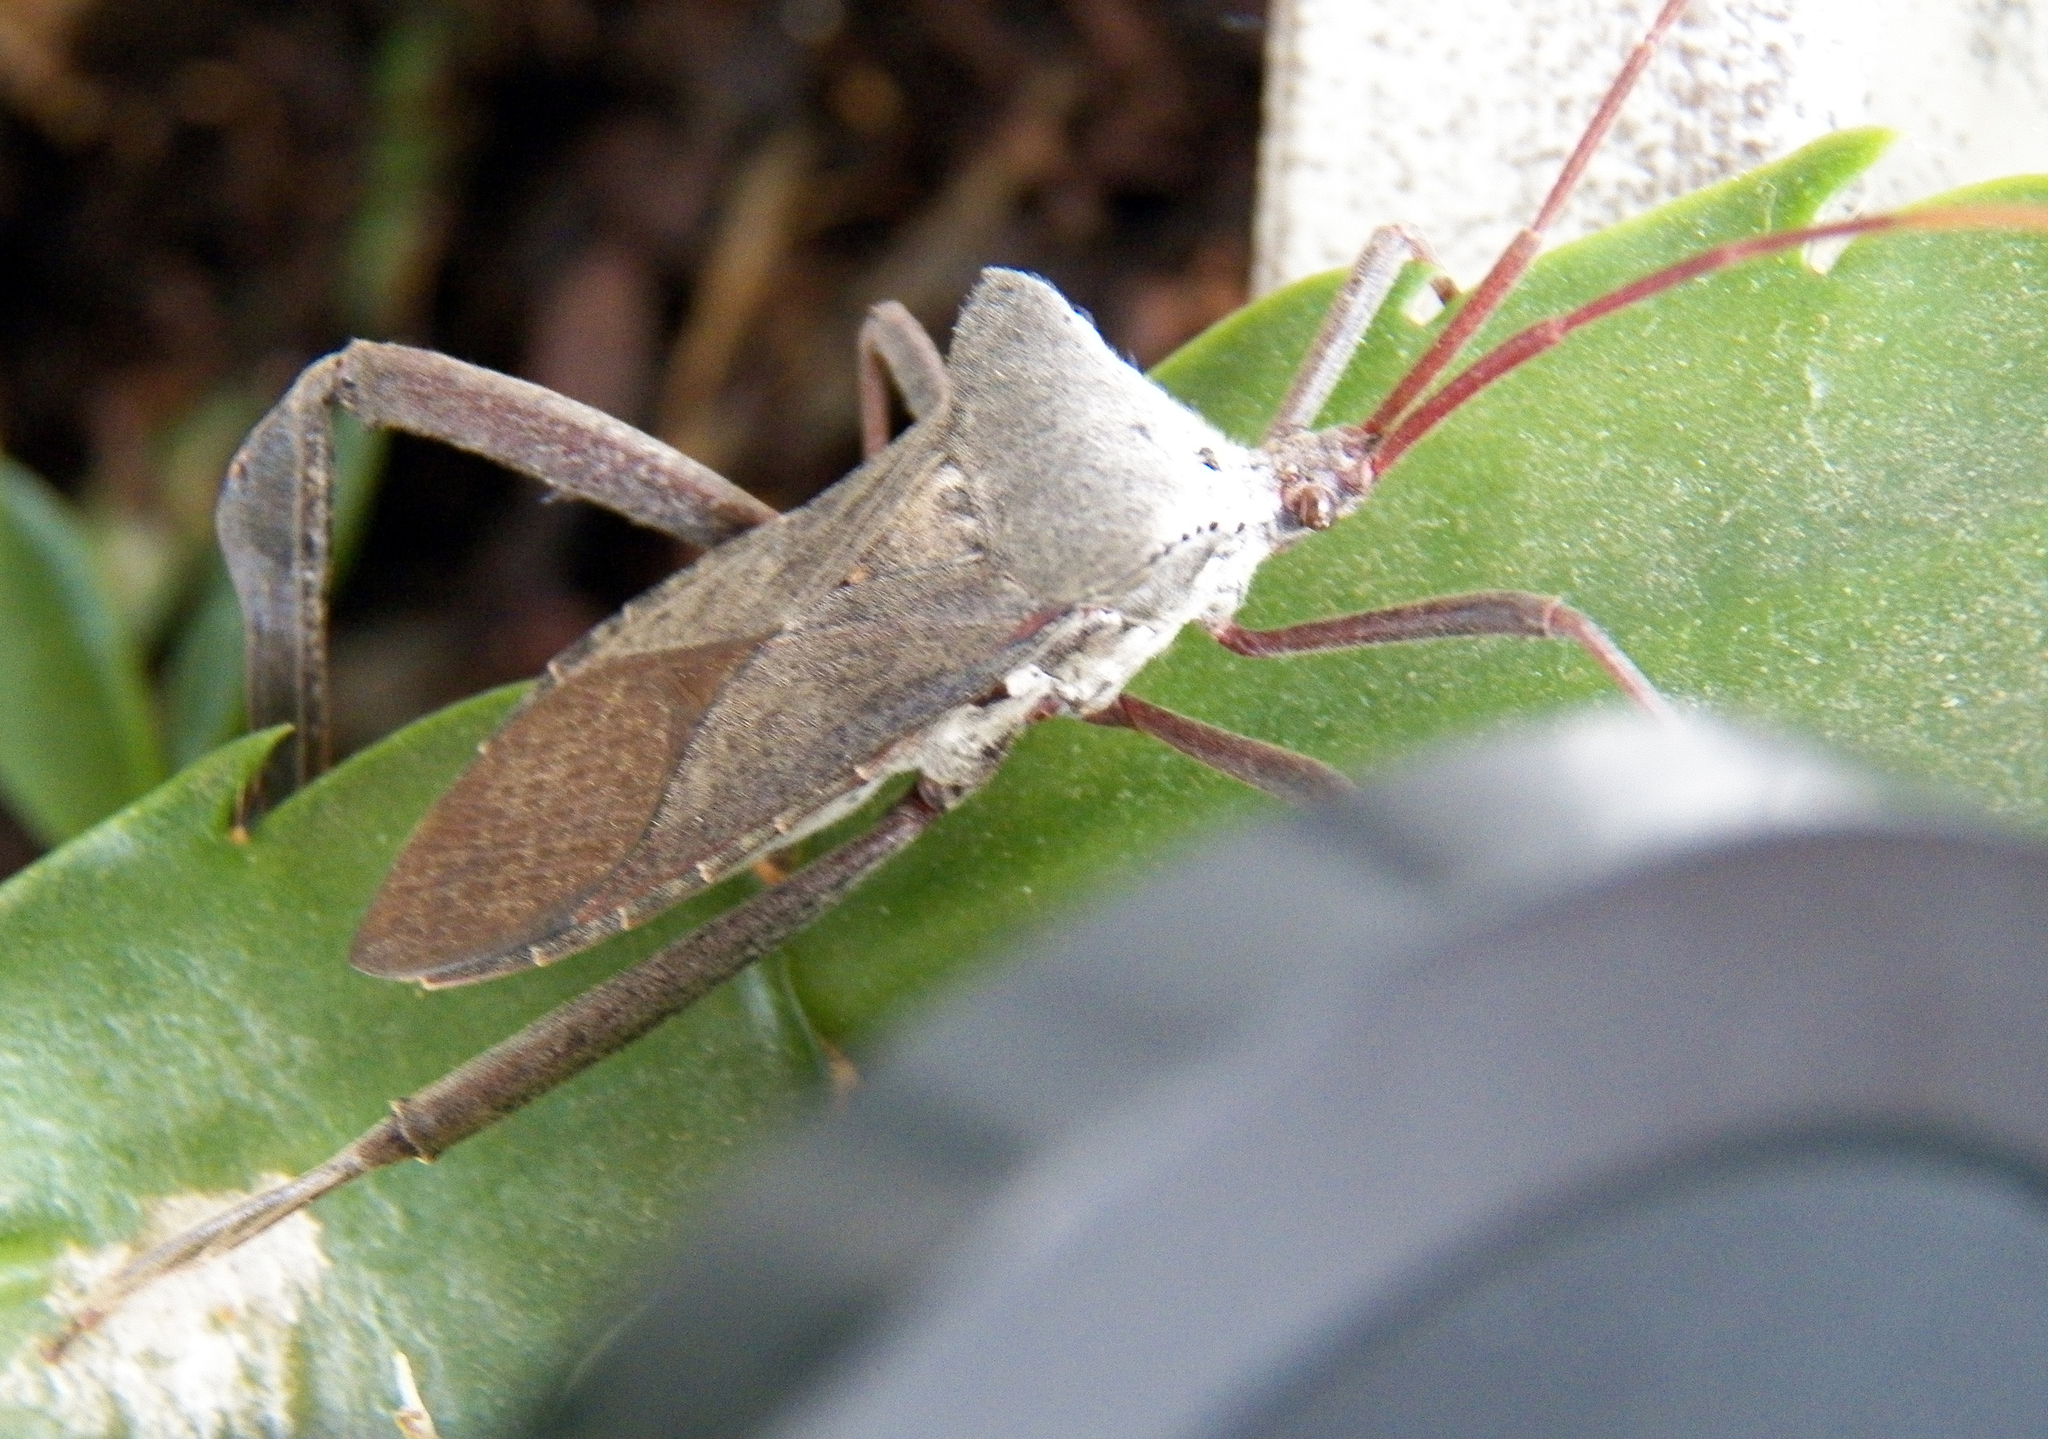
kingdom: Animalia
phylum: Arthropoda
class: Insecta
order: Hemiptera
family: Coreidae
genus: Acanthocephala
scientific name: Acanthocephala declivis
